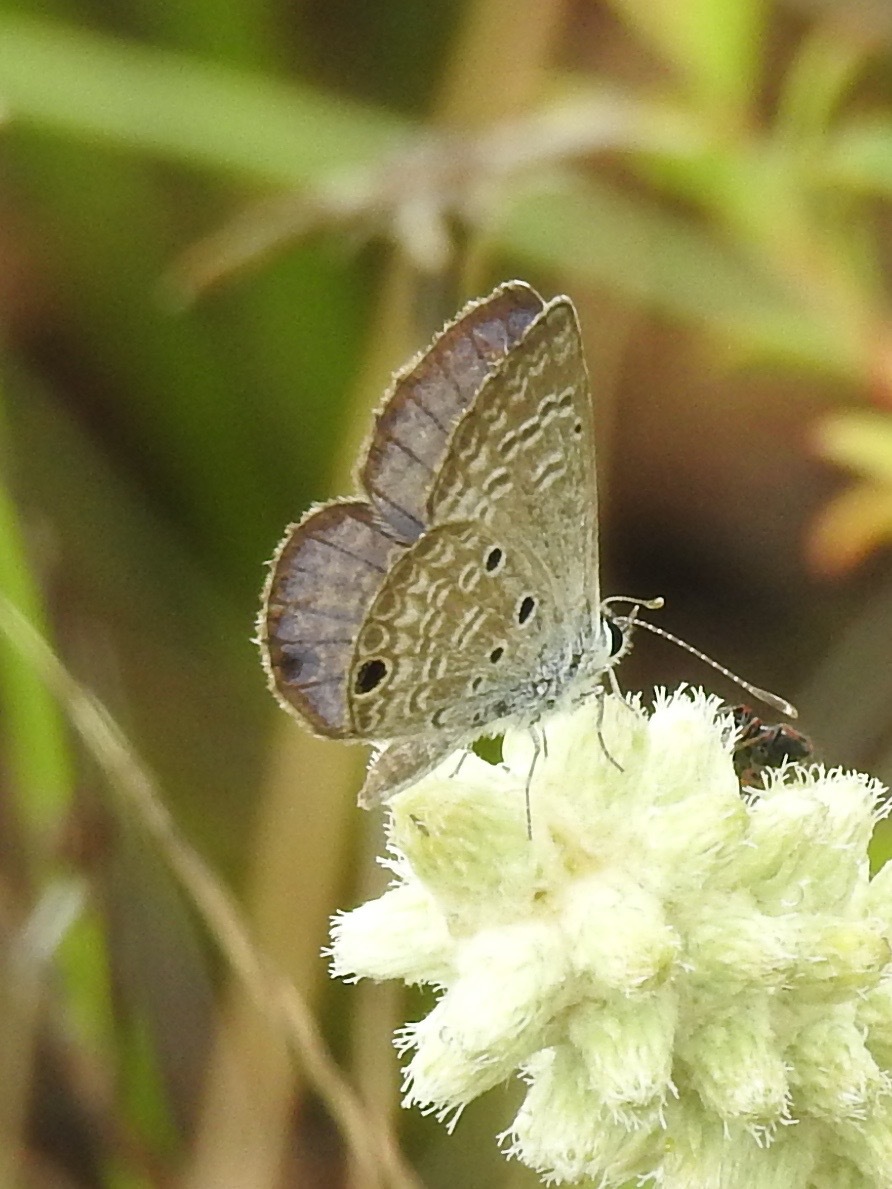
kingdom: Animalia
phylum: Arthropoda
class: Insecta
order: Lepidoptera
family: Lycaenidae
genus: Hemiargus
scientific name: Hemiargus ceraunus
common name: Ceraunus blue
